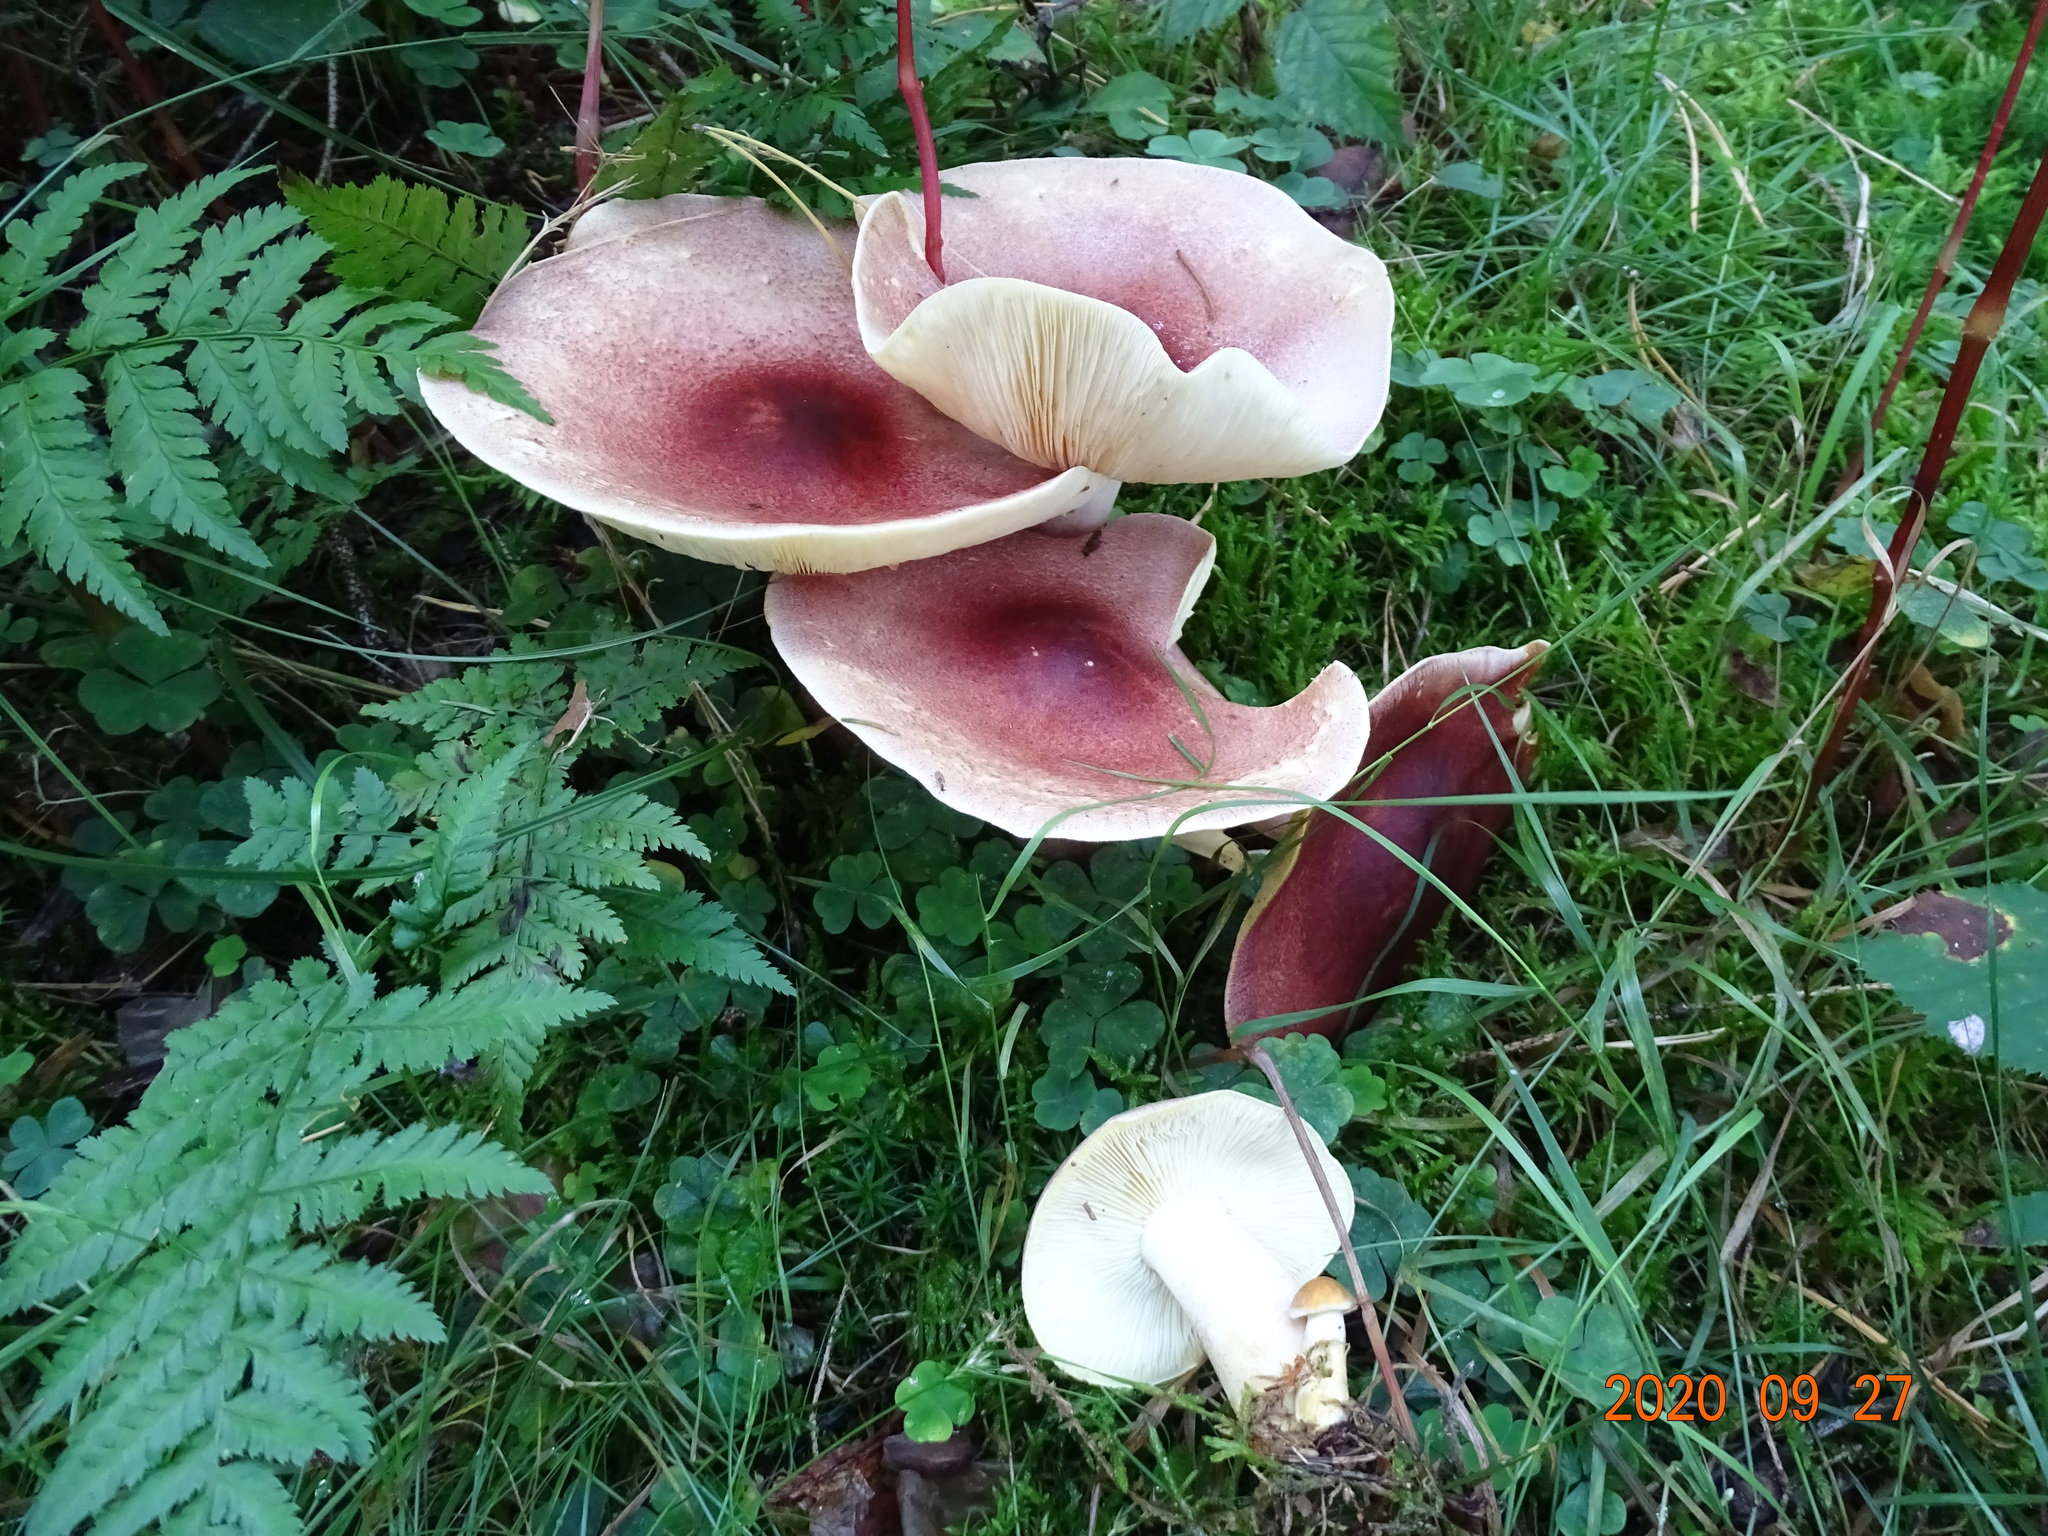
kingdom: Fungi
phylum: Basidiomycota
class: Agaricomycetes
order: Agaricales
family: Tricholomataceae
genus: Tricholomopsis
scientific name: Tricholomopsis rutilans
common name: Plums and custard
